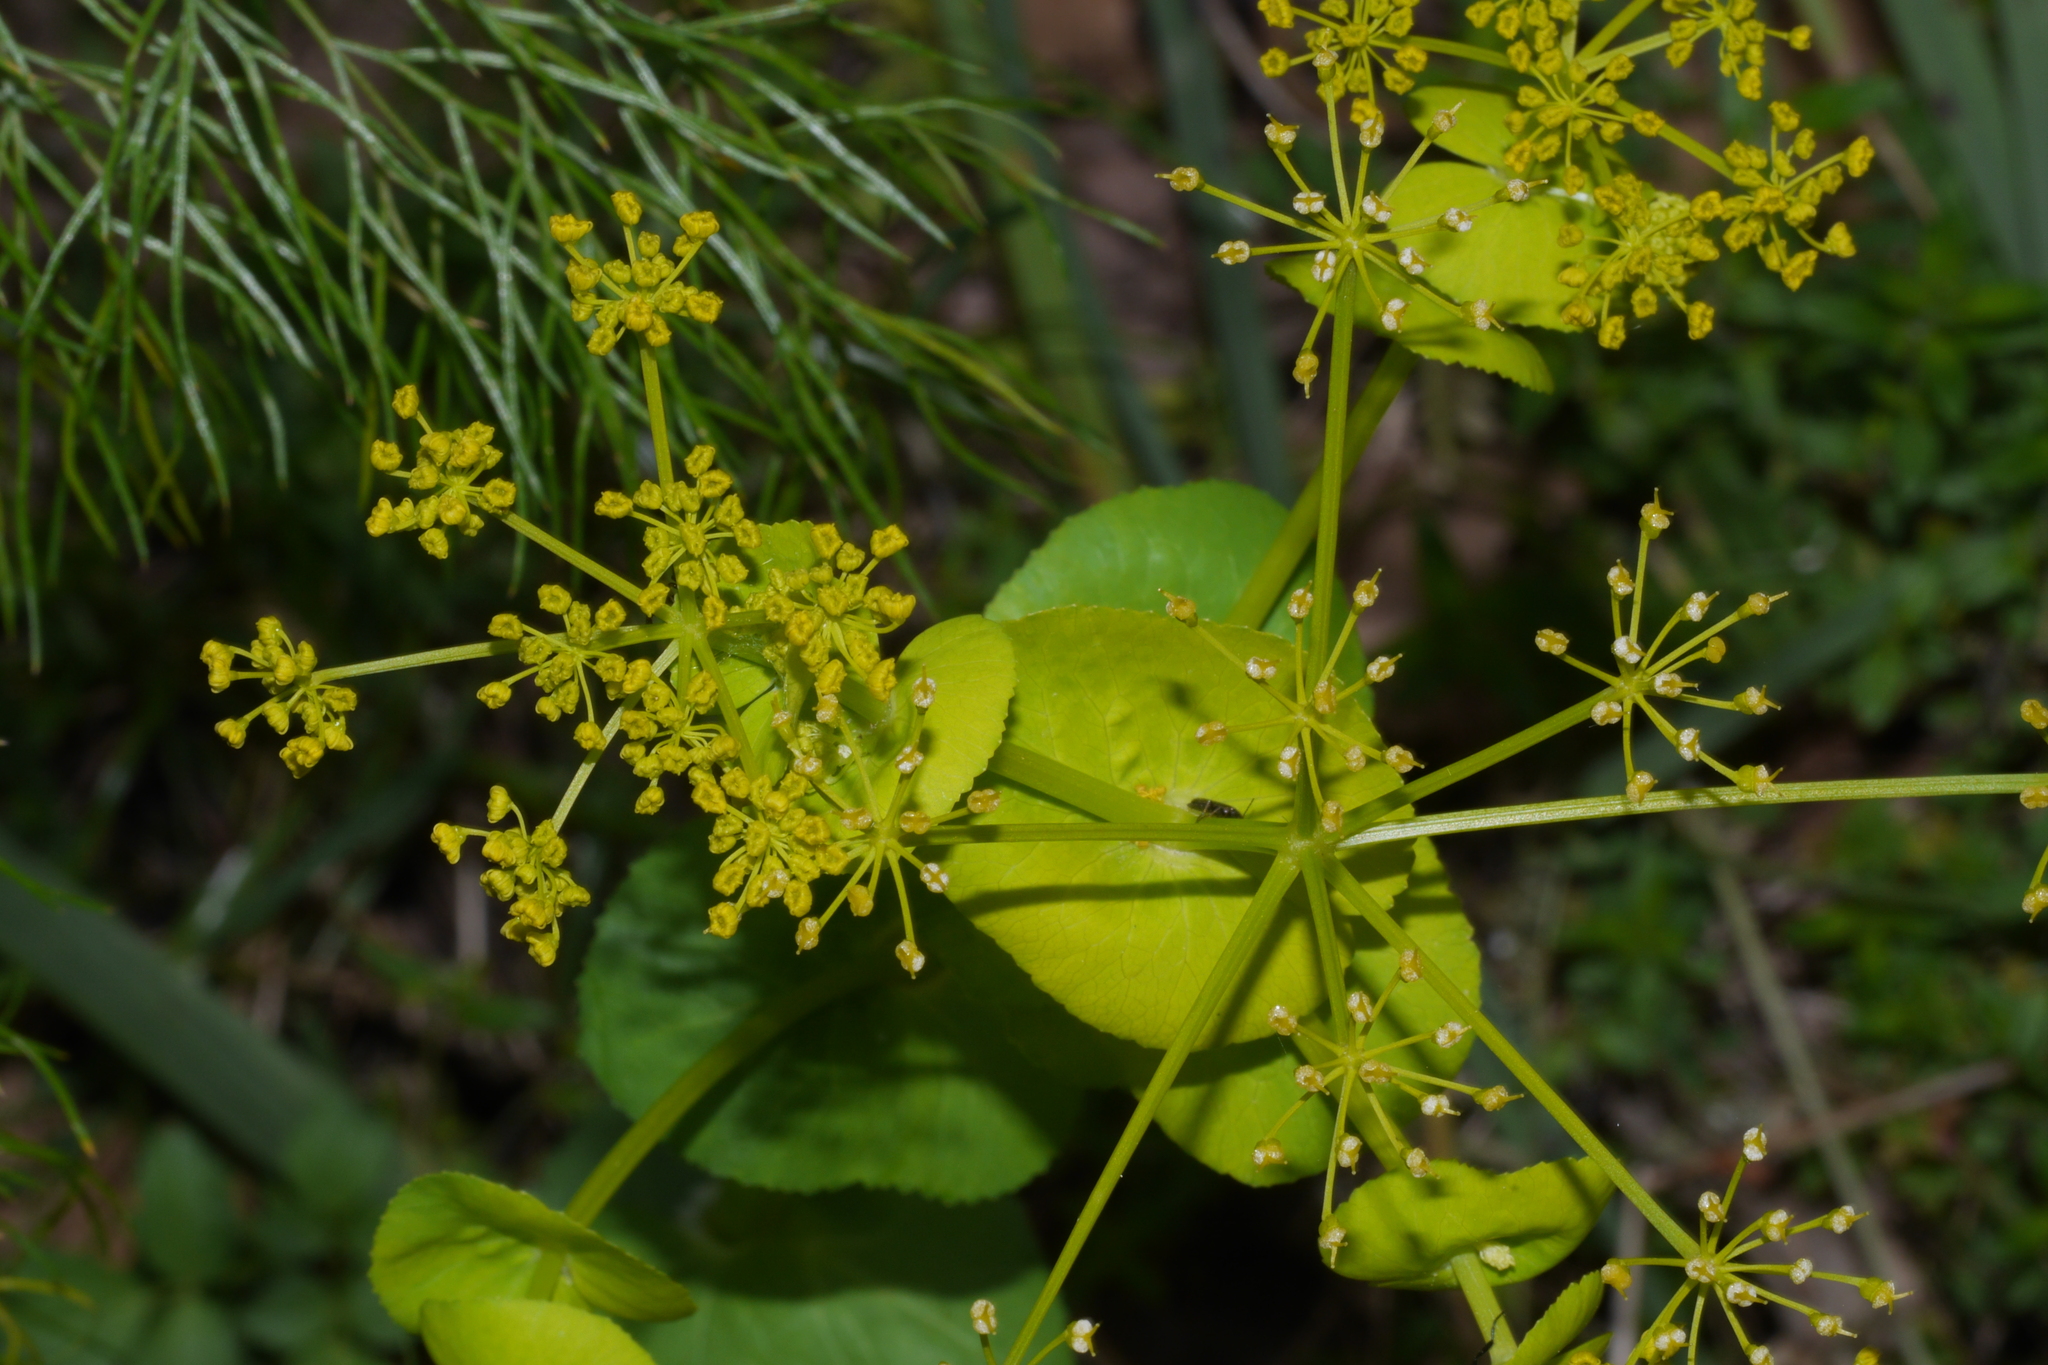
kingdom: Plantae
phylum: Tracheophyta
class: Magnoliopsida
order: Apiales
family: Apiaceae
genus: Smyrnium
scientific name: Smyrnium perfoliatum
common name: Perfoliate alexanders
